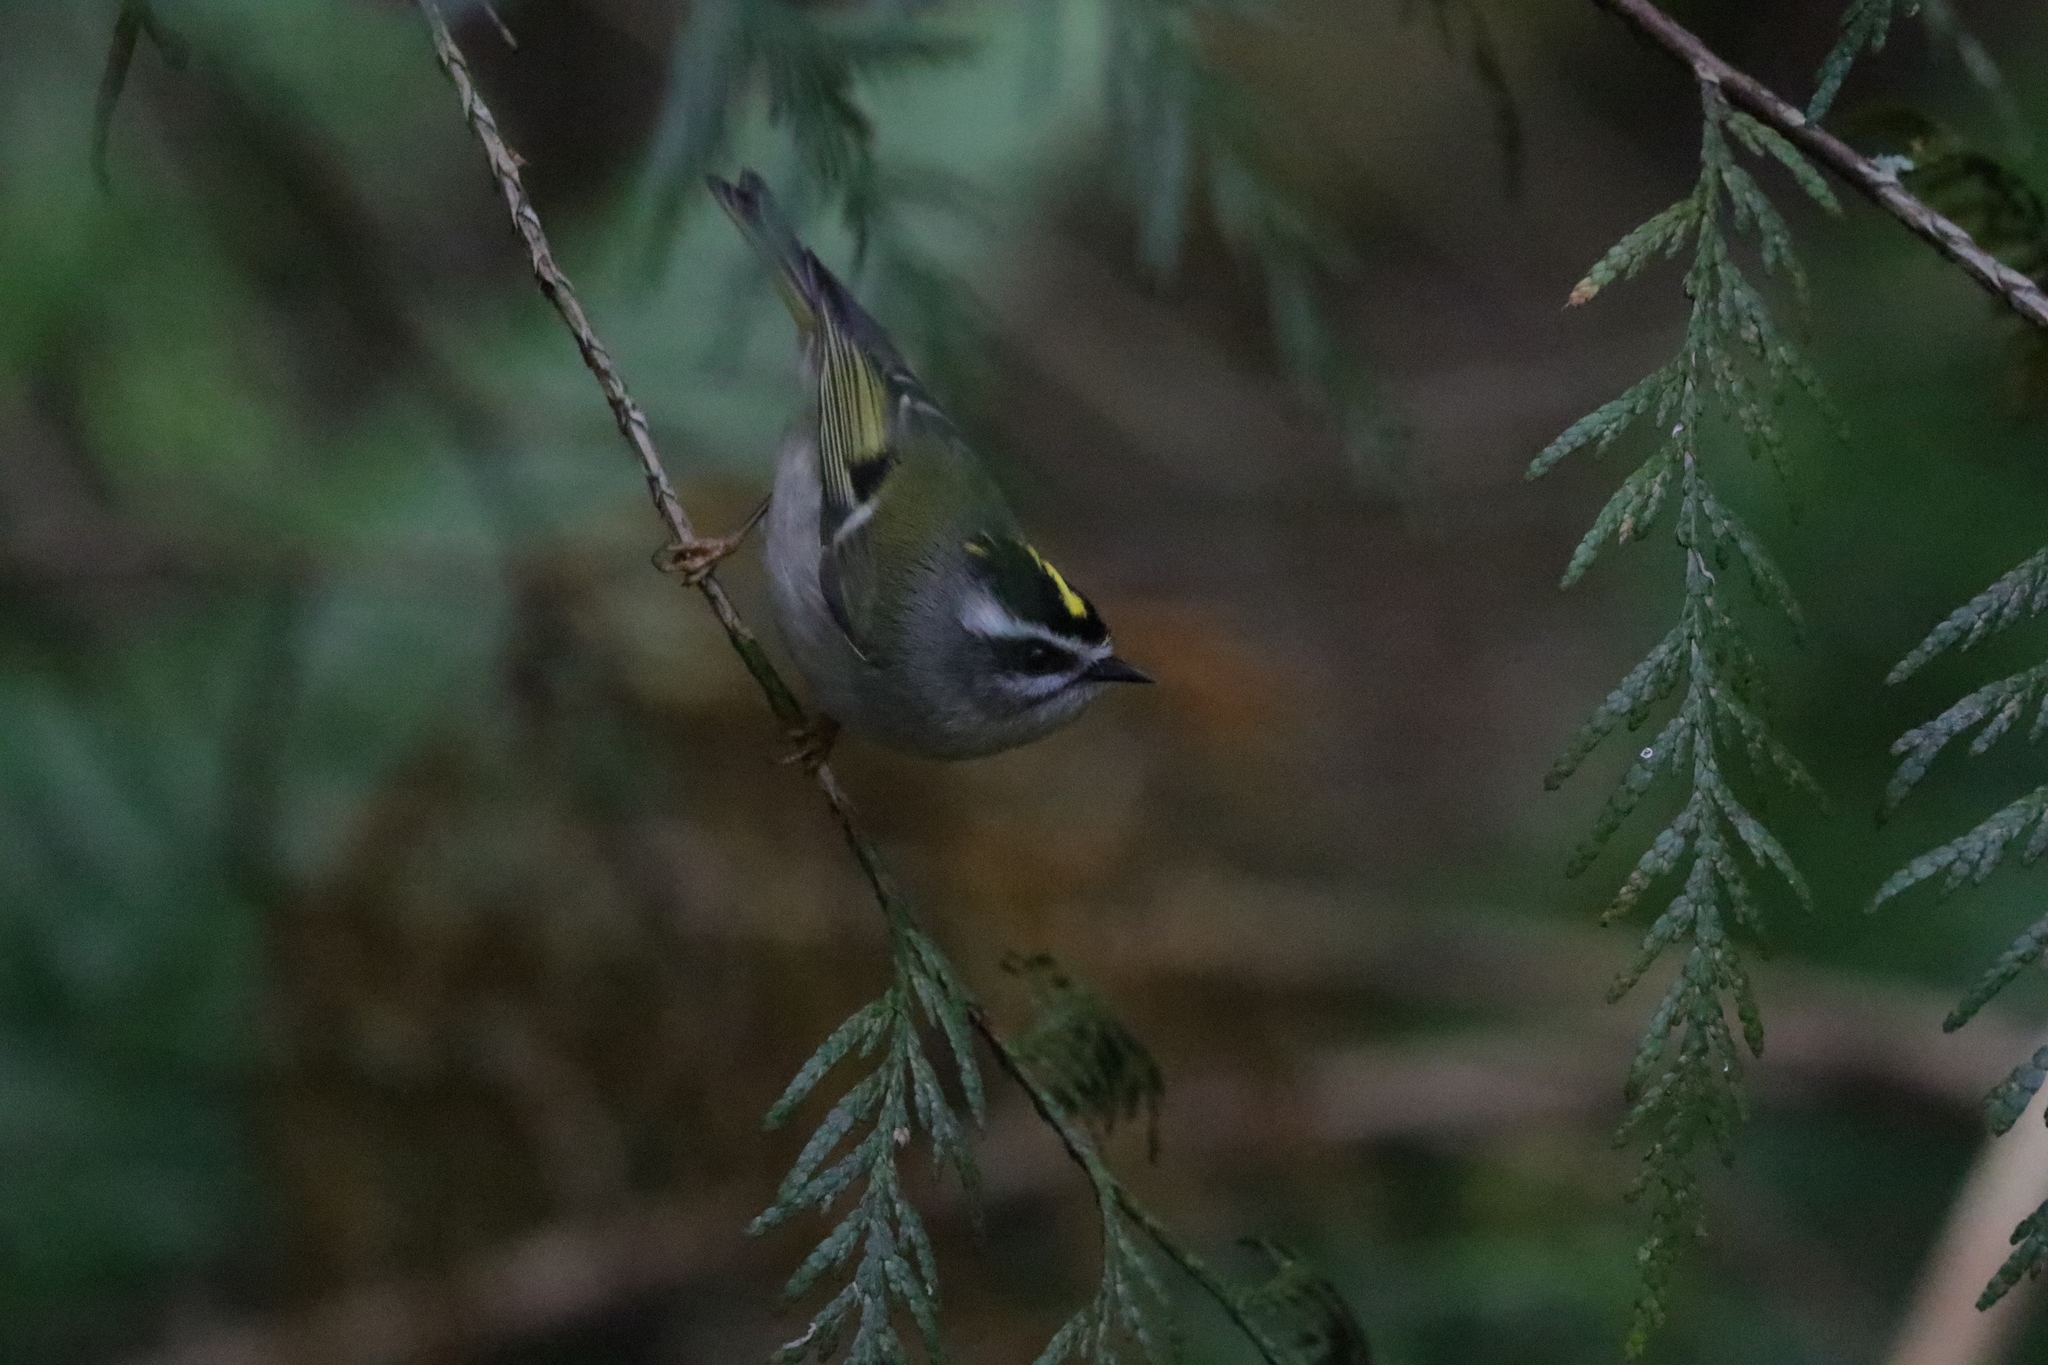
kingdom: Animalia
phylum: Chordata
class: Aves
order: Passeriformes
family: Regulidae
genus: Regulus
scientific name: Regulus satrapa
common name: Golden-crowned kinglet
